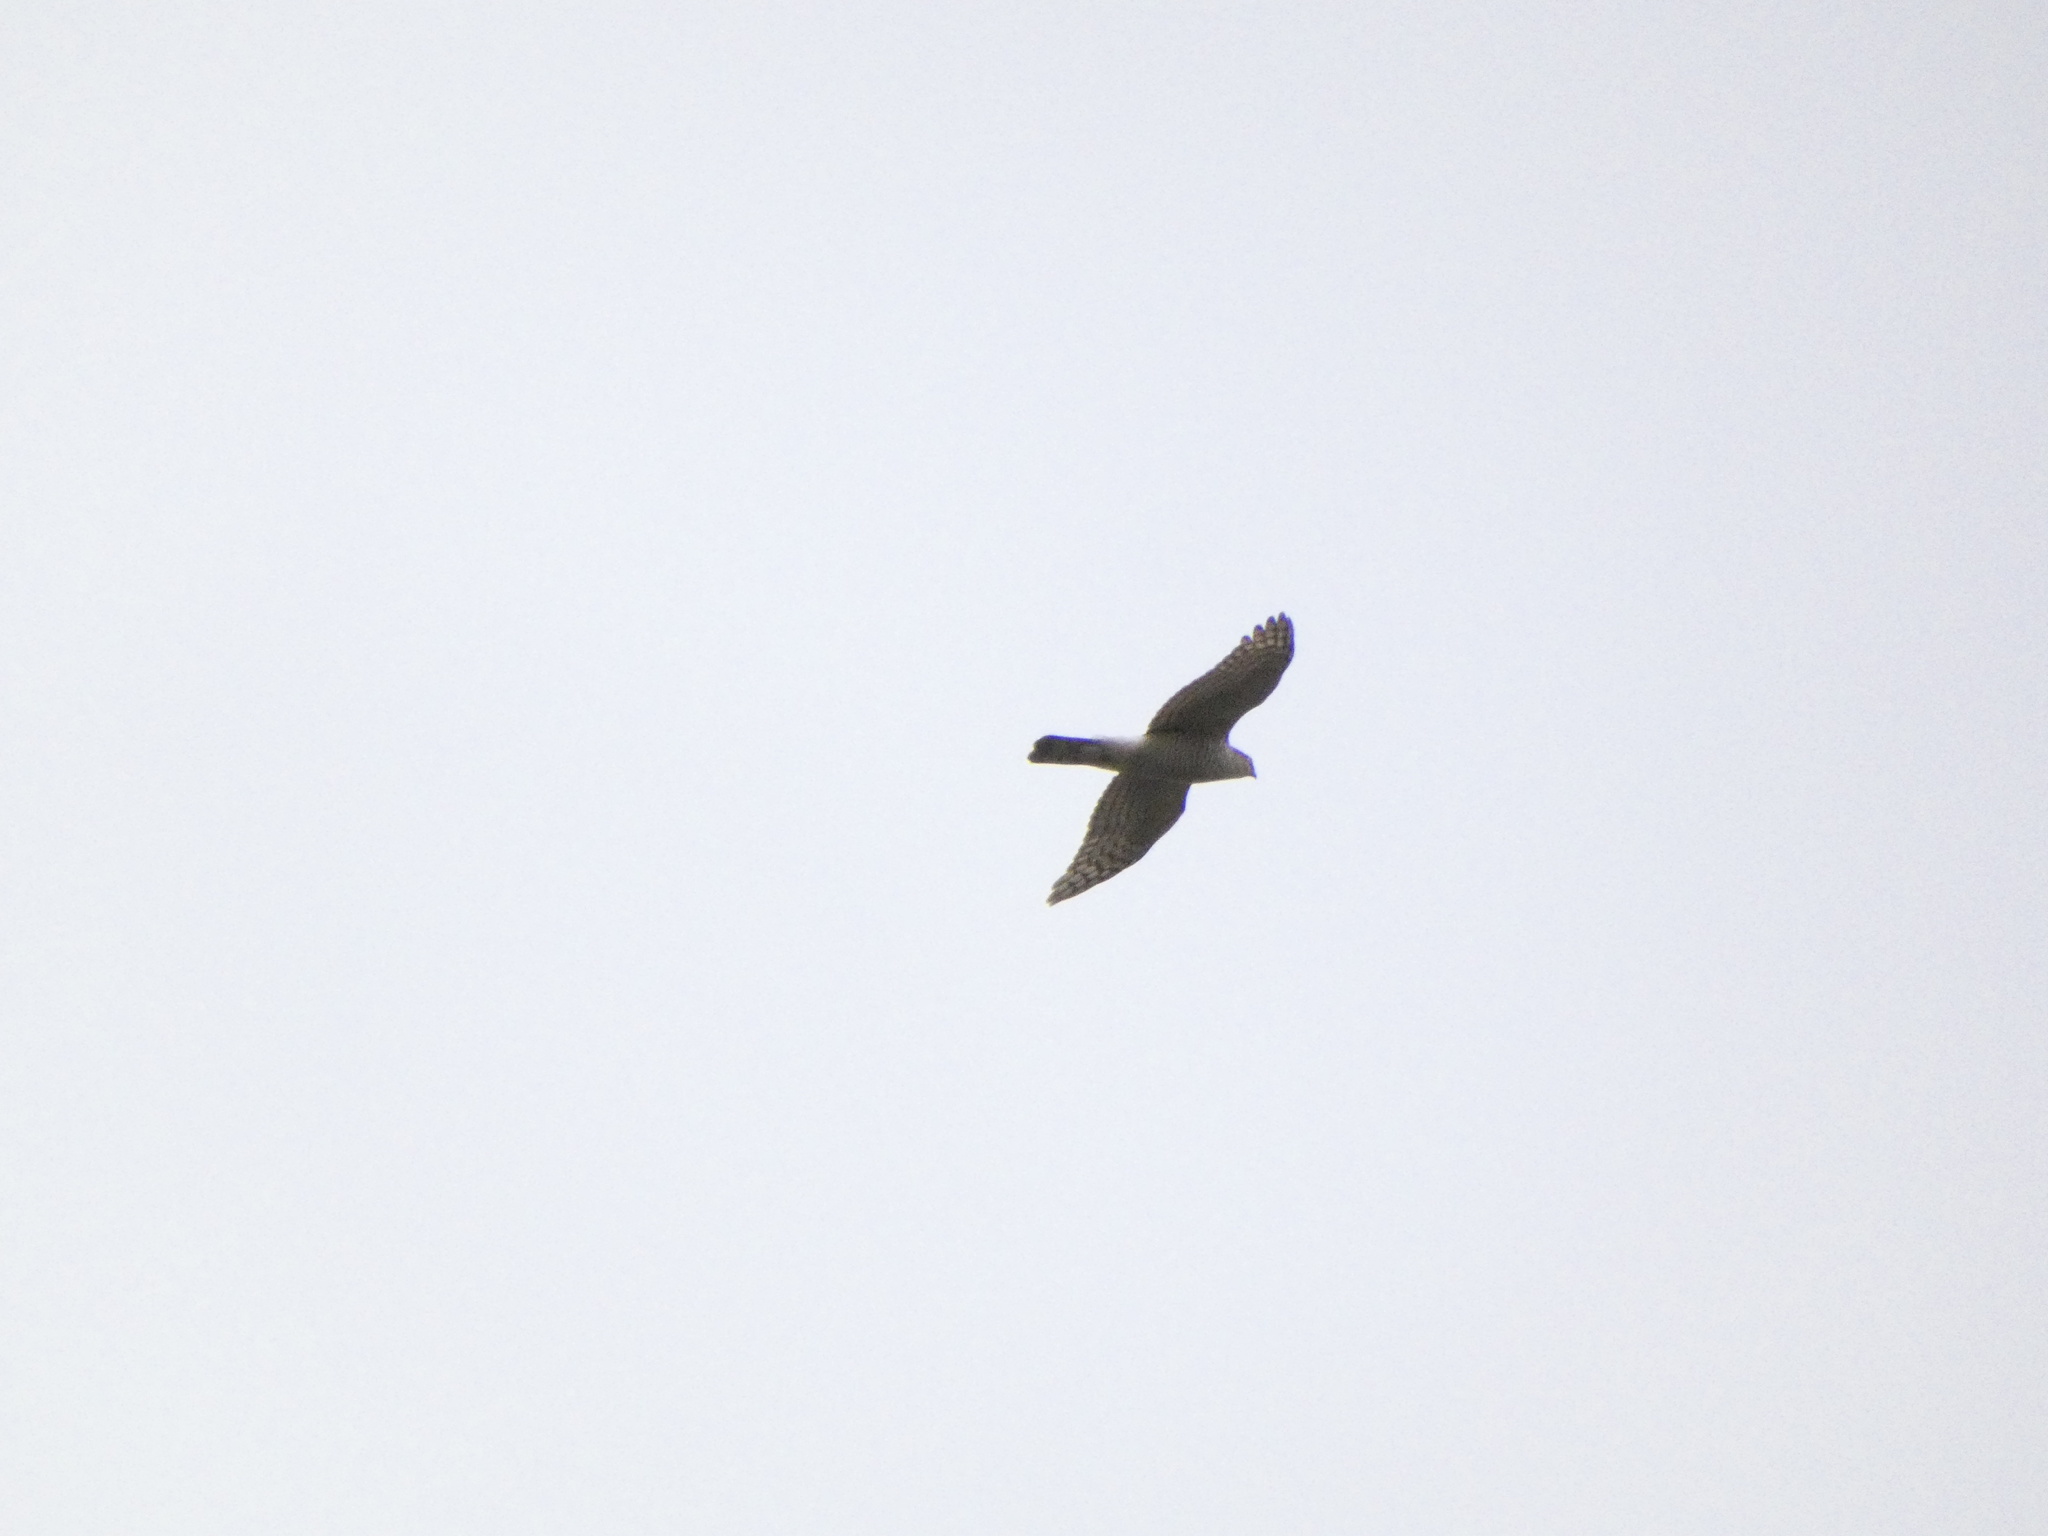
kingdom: Animalia
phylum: Chordata
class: Aves
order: Accipitriformes
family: Accipitridae
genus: Accipiter
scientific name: Accipiter nisus
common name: Eurasian sparrowhawk
